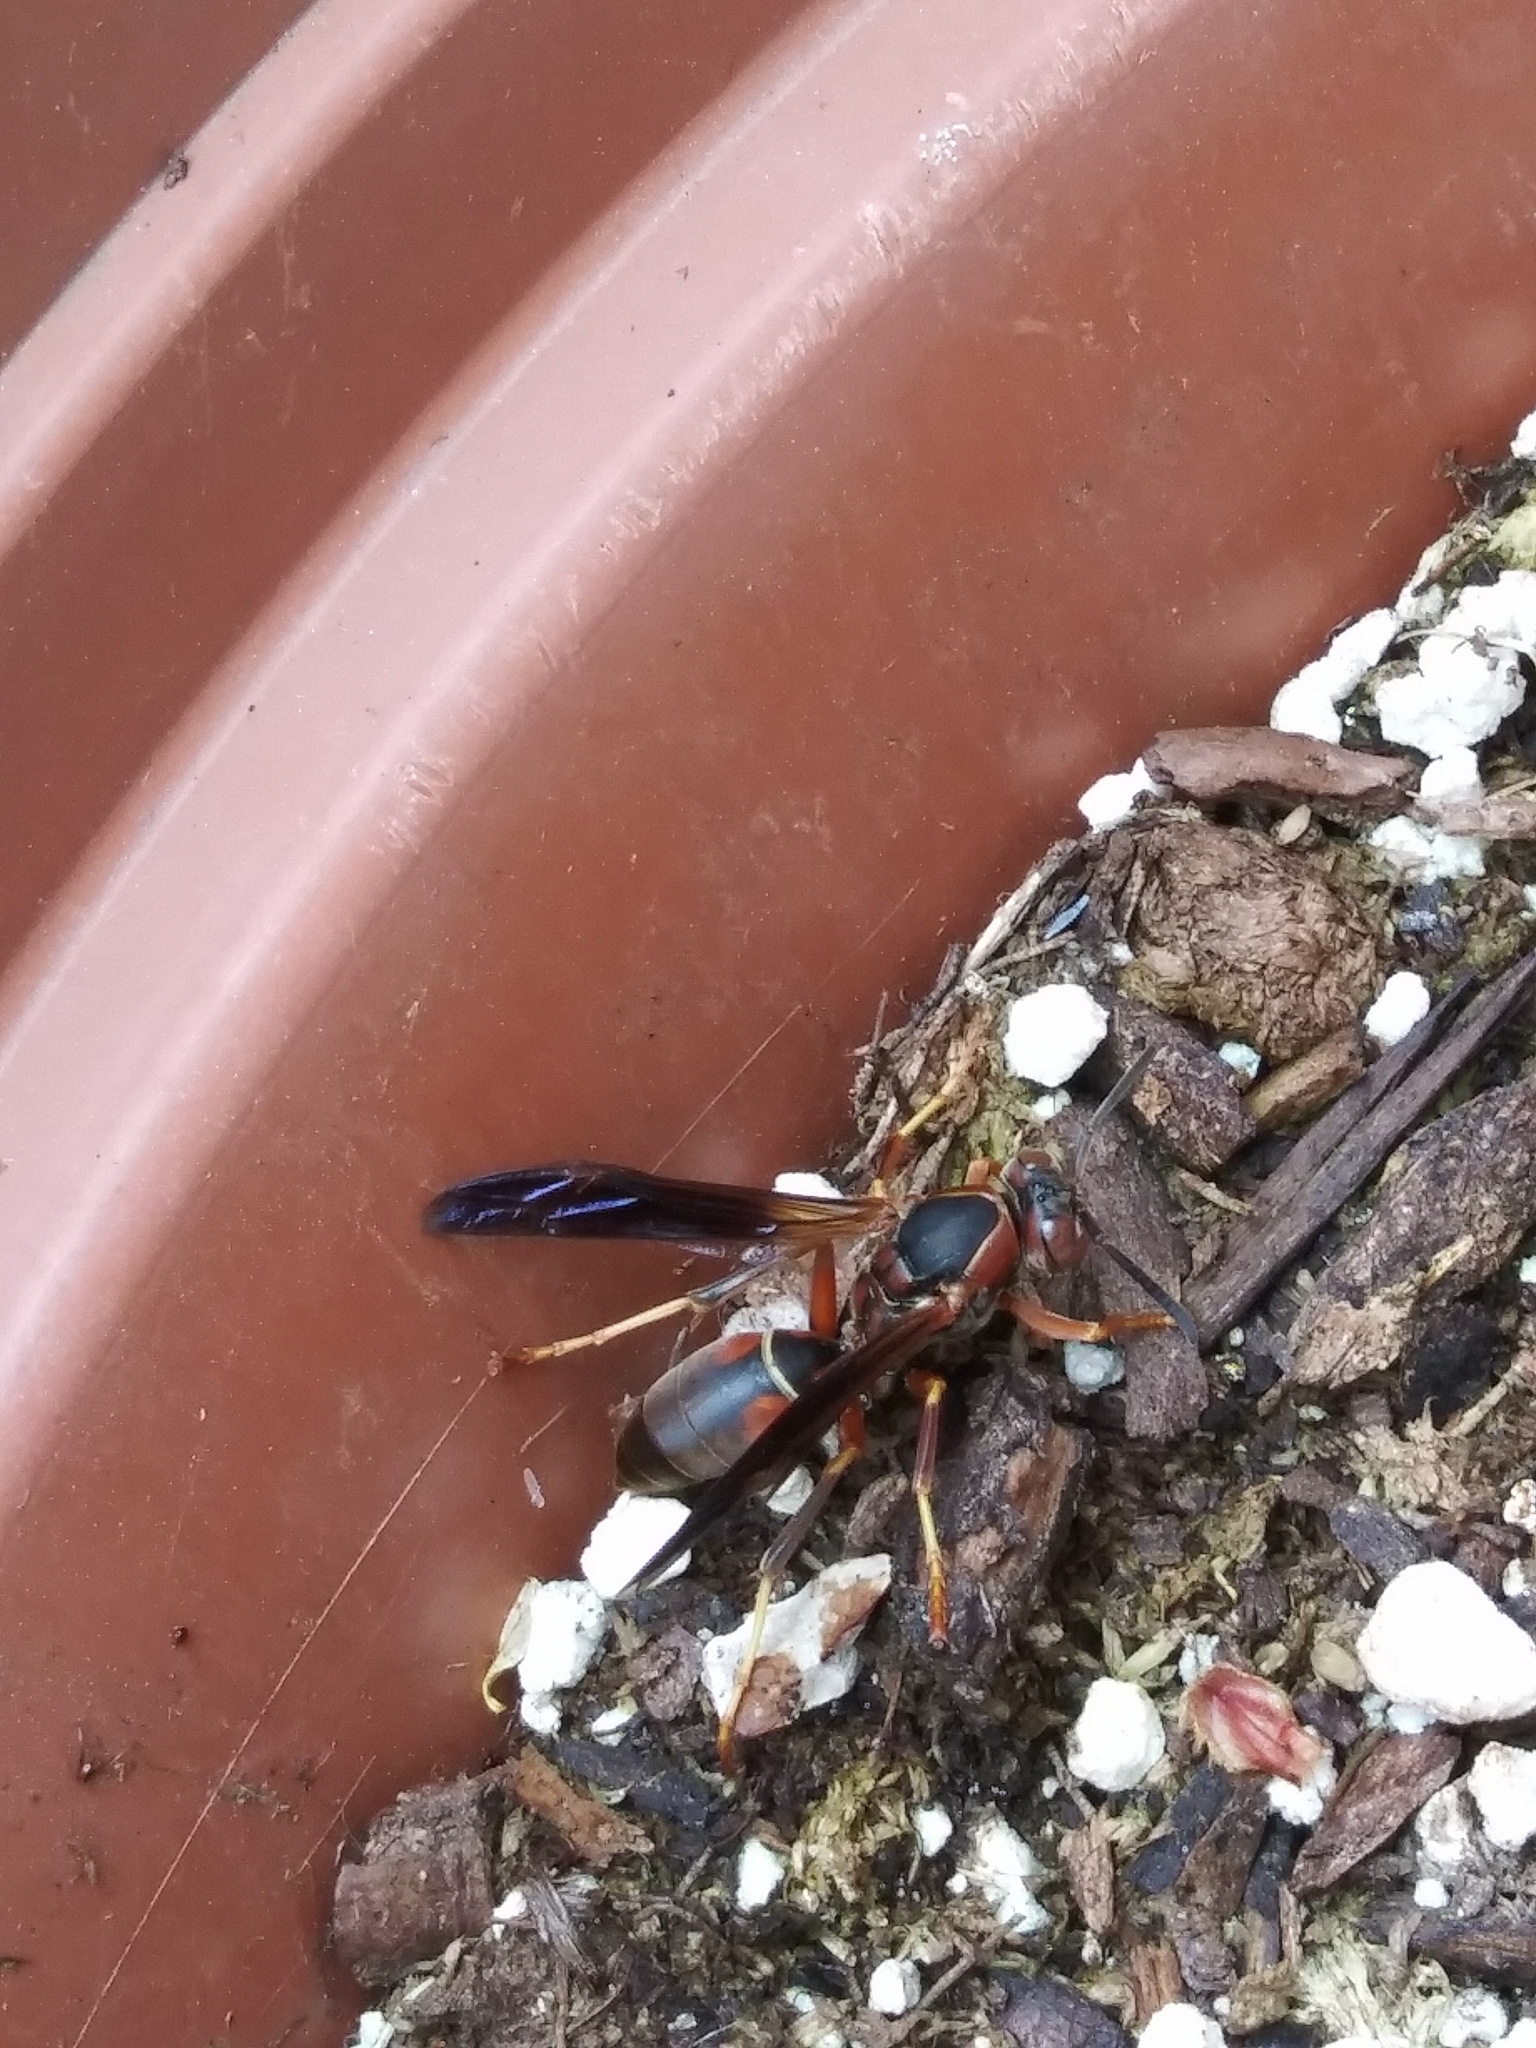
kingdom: Animalia
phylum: Arthropoda
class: Insecta
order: Hymenoptera
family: Eumenidae
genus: Polistes
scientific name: Polistes fuscatus
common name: Dark paper wasp
